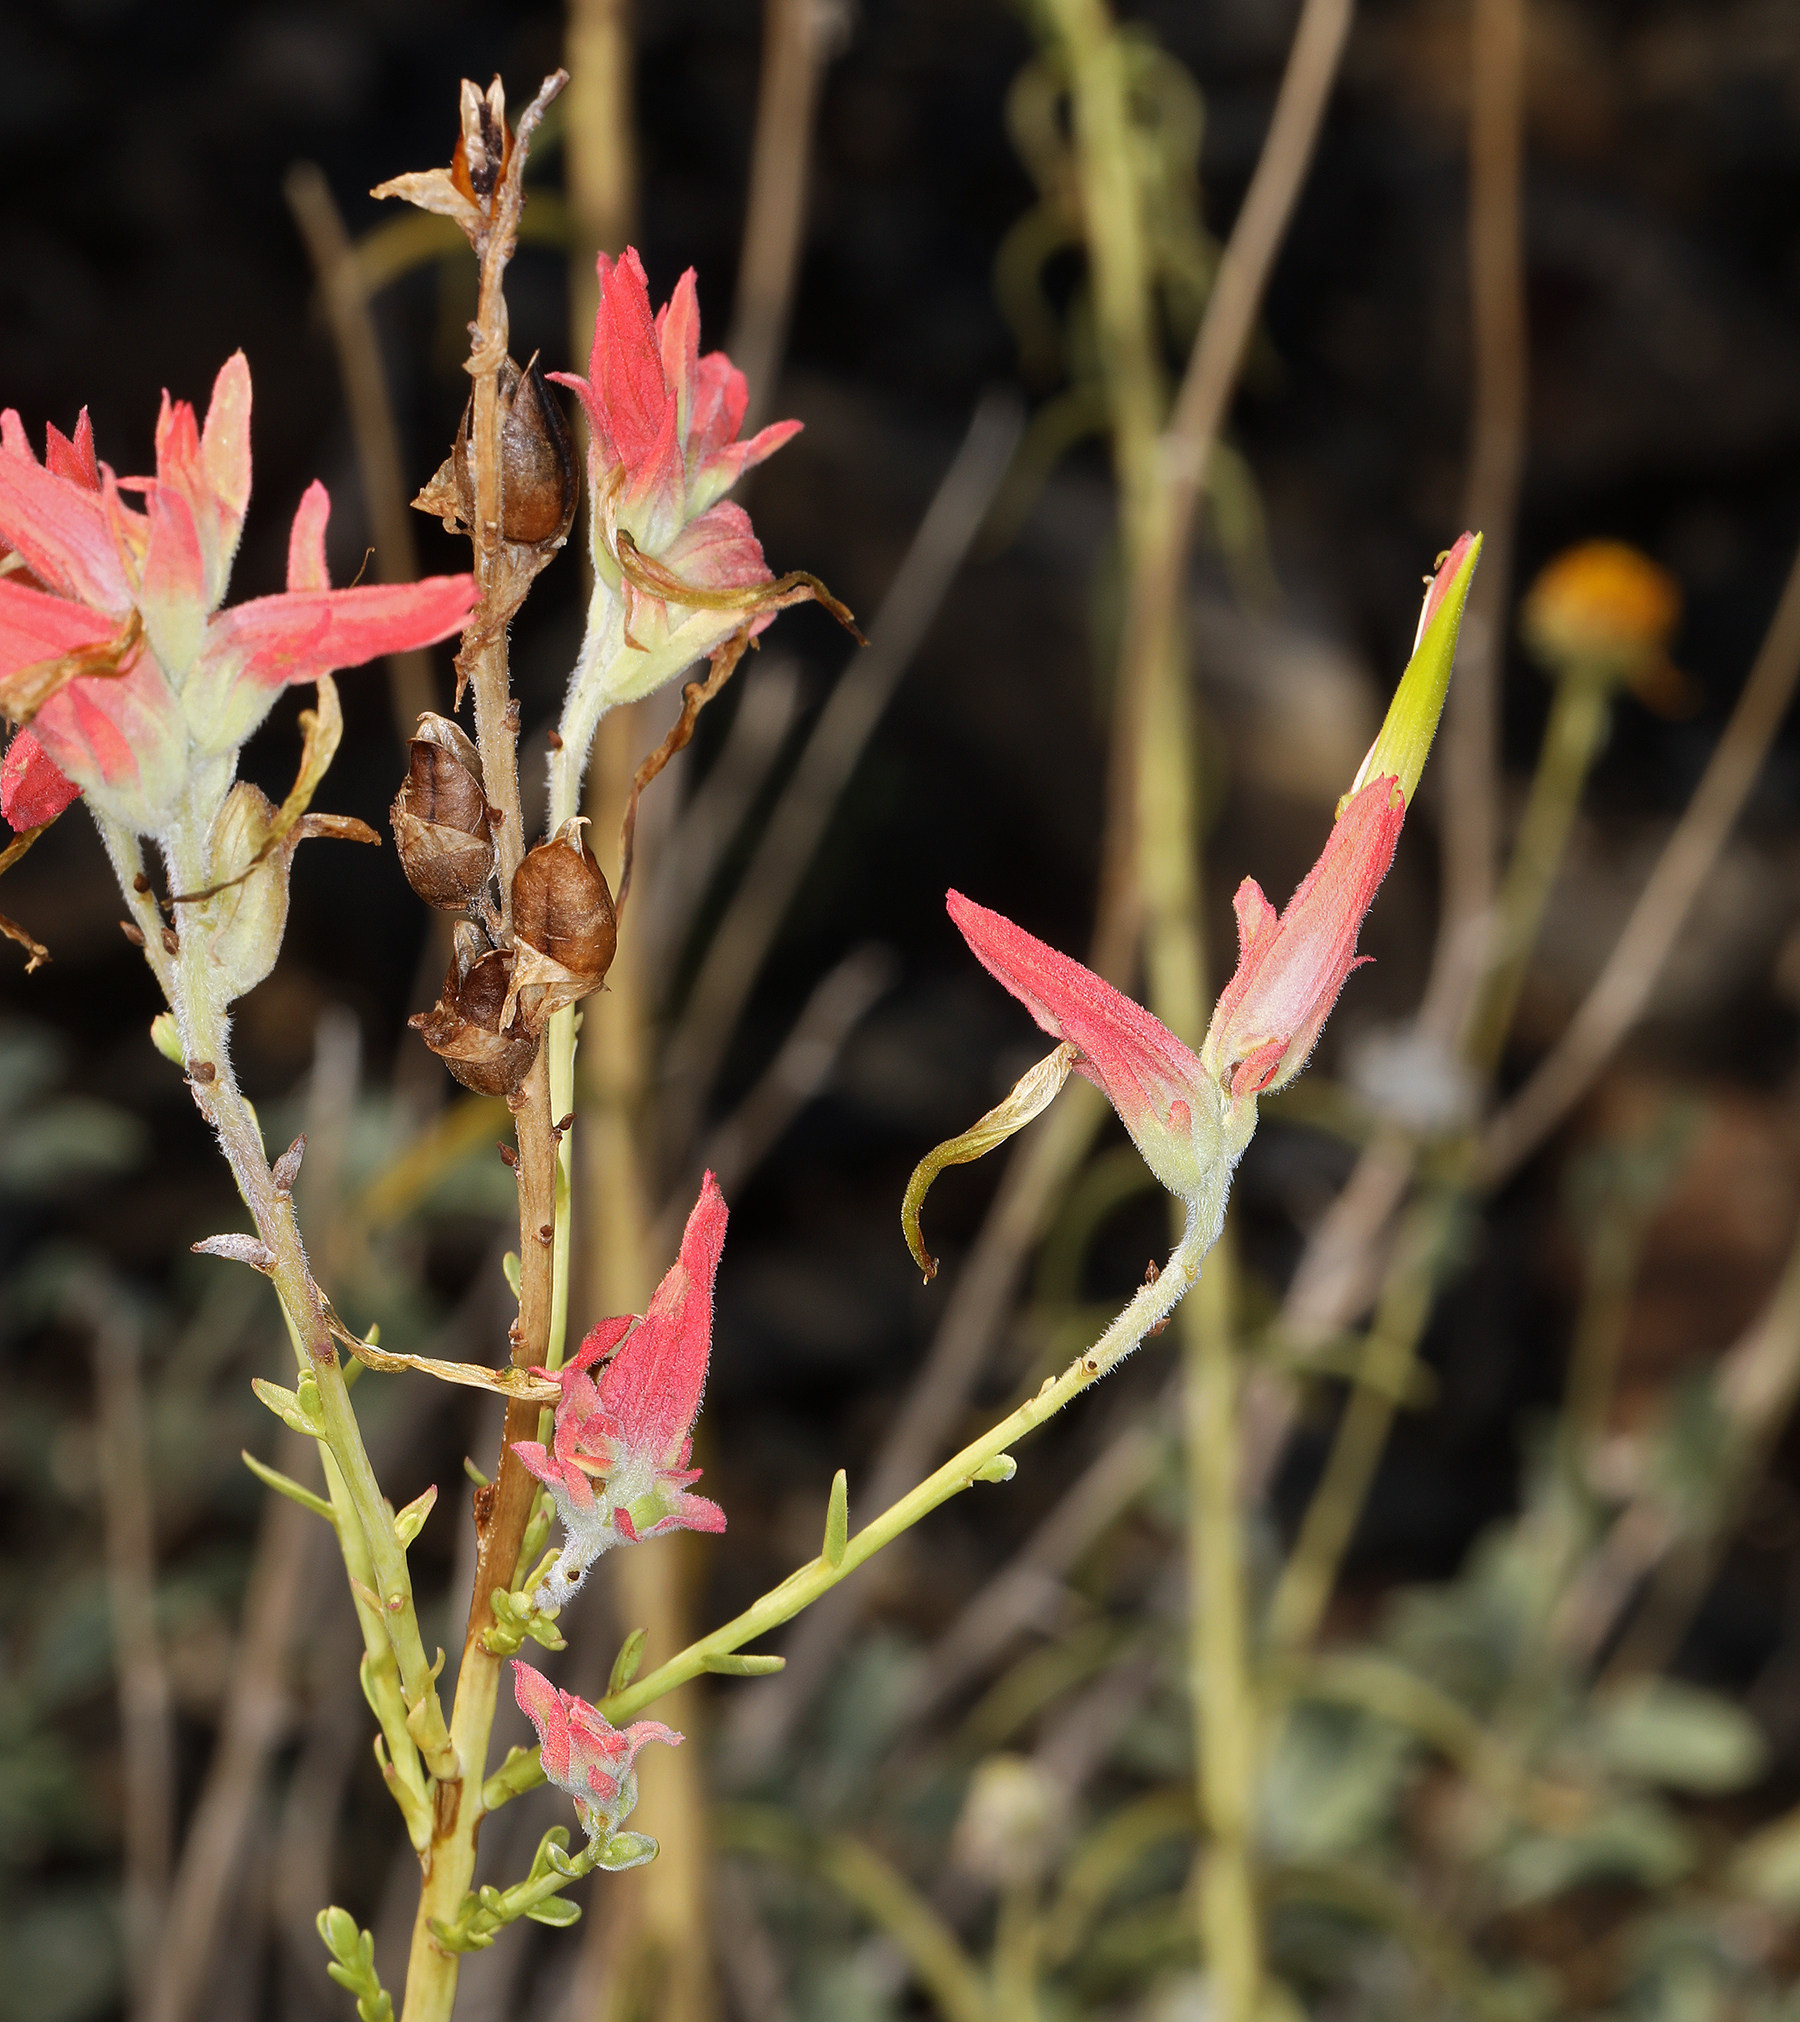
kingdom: Plantae
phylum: Tracheophyta
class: Magnoliopsida
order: Lamiales
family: Orobanchaceae
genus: Castilleja
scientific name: Castilleja linariifolia
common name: Wyoming paintbrush
